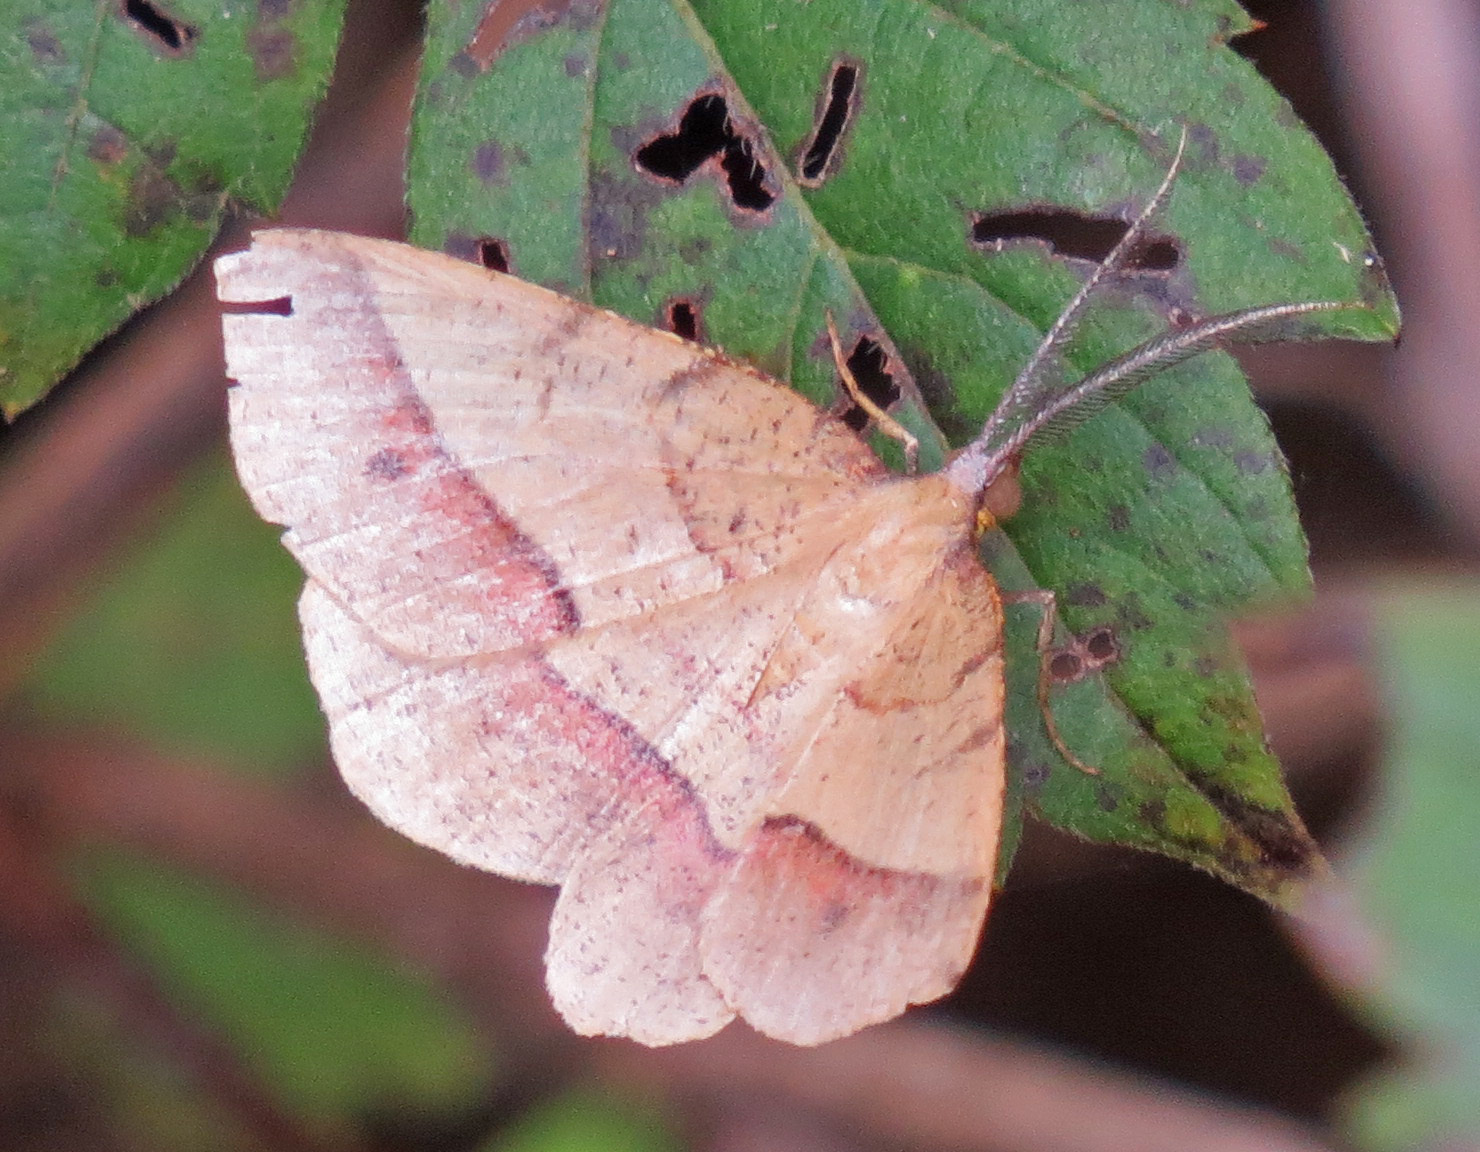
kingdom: Animalia
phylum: Arthropoda
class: Insecta
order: Lepidoptera
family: Geometridae
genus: Erastria
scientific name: Erastria cruentaria
